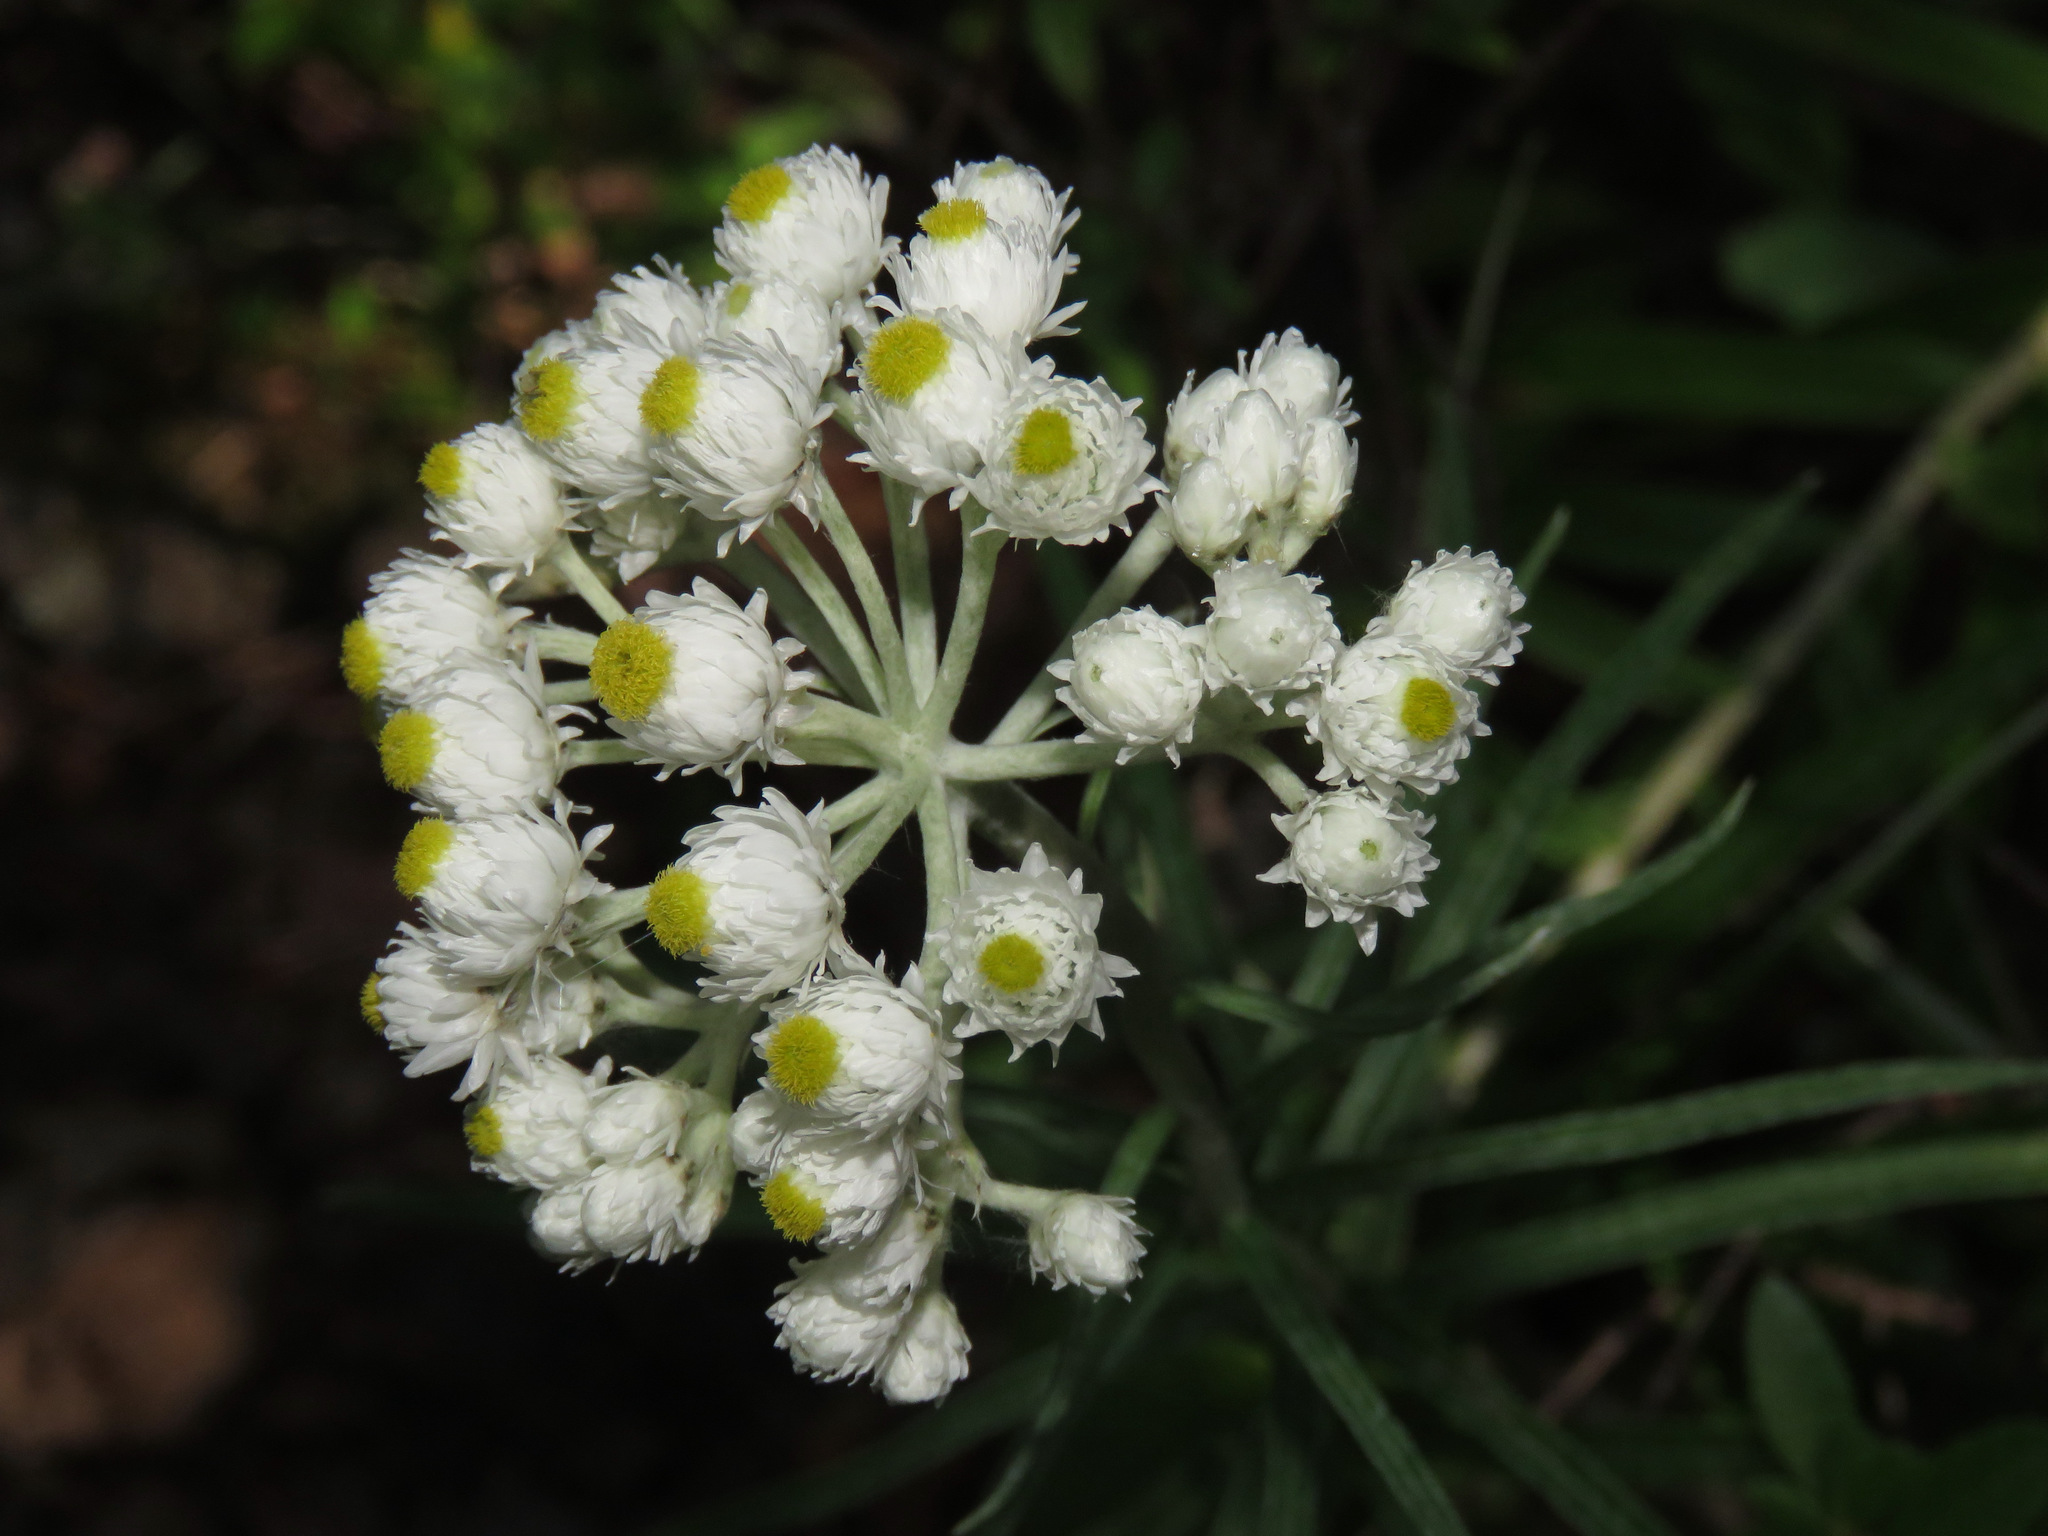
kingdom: Plantae
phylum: Tracheophyta
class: Magnoliopsida
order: Asterales
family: Asteraceae
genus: Anaphalis
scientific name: Anaphalis margaritacea
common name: Pearly everlasting
